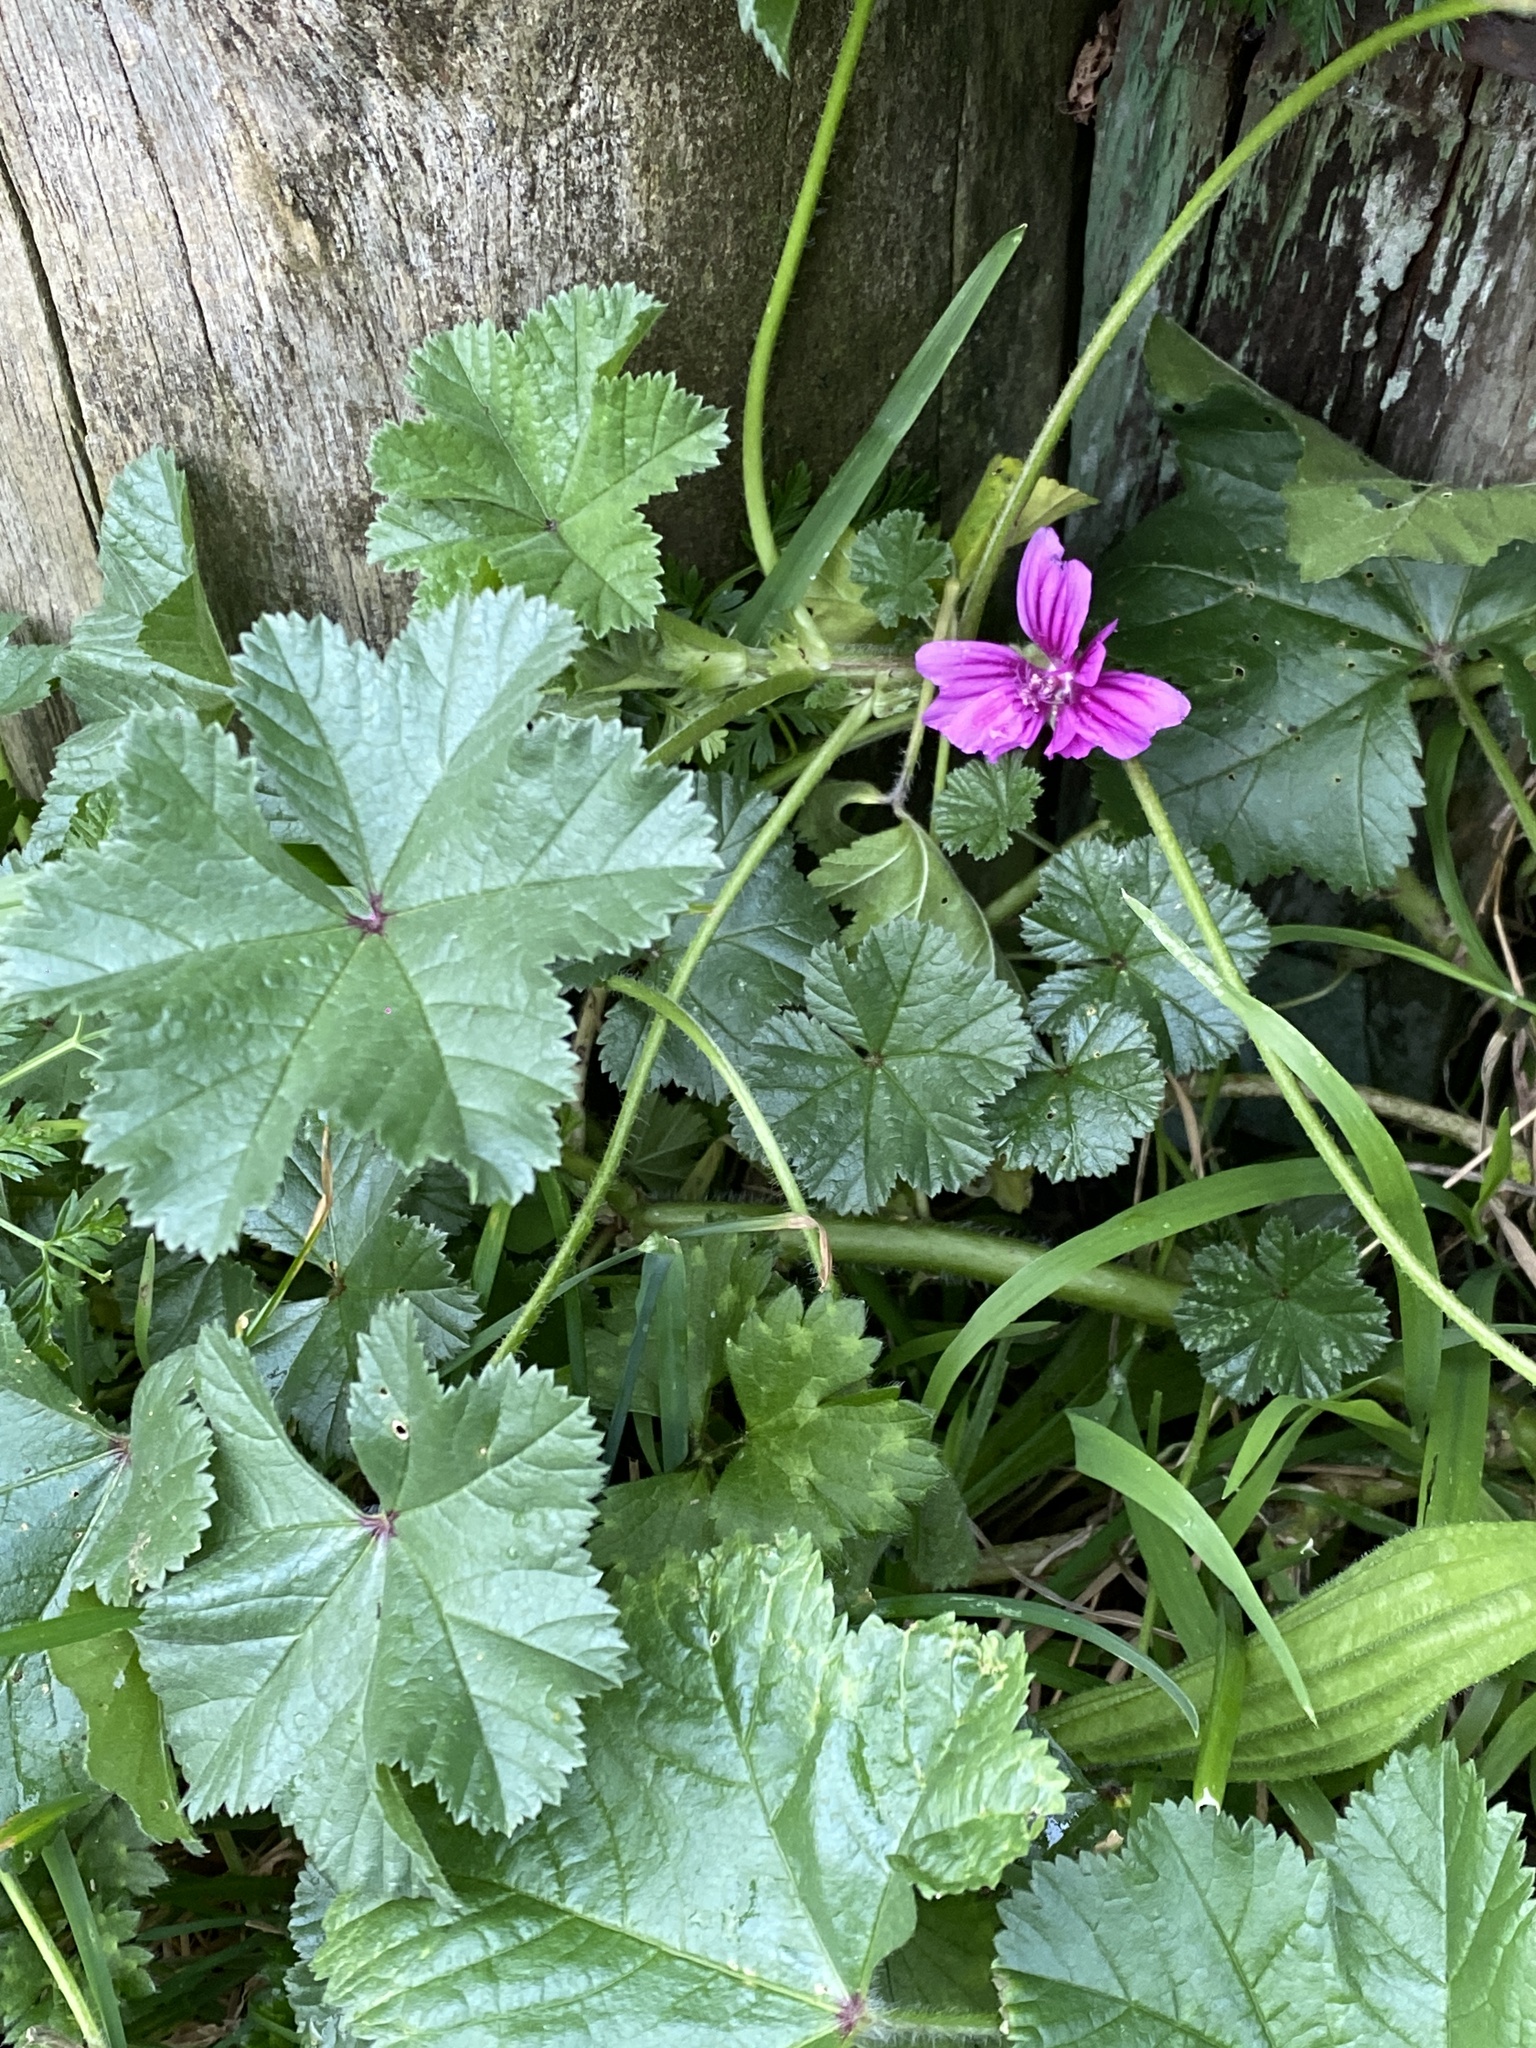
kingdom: Plantae
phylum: Tracheophyta
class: Magnoliopsida
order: Malvales
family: Malvaceae
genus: Malva
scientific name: Malva sylvestris
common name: Common mallow
